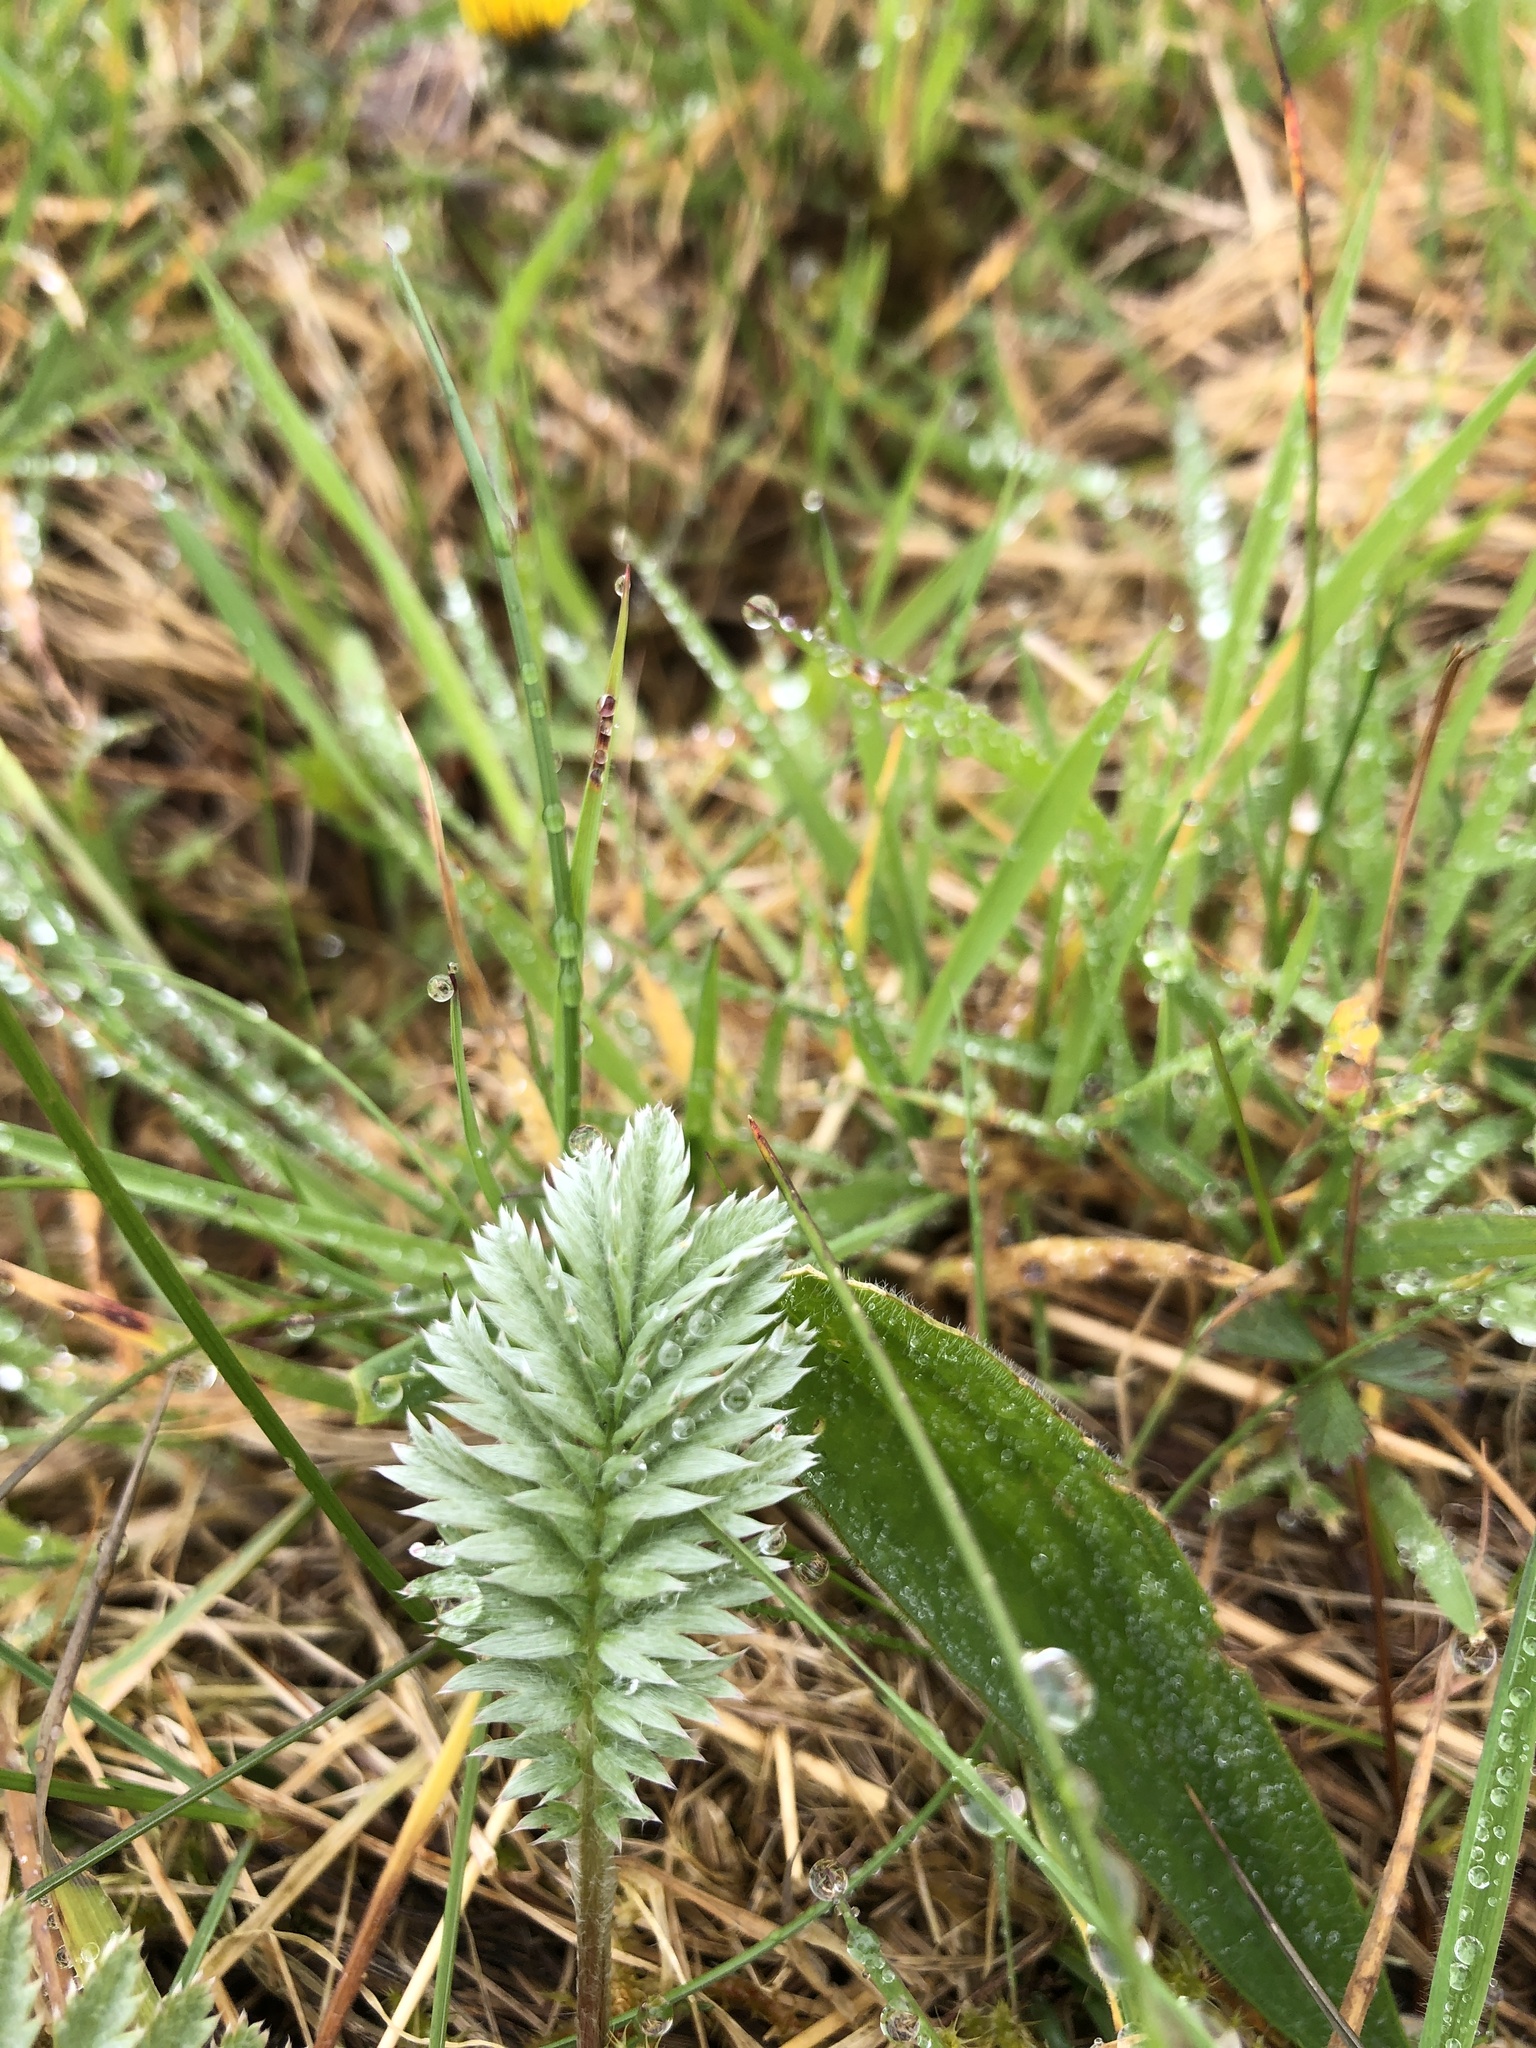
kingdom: Plantae
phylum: Tracheophyta
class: Magnoliopsida
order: Rosales
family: Rosaceae
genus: Argentina
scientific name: Argentina anserina
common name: Common silverweed
